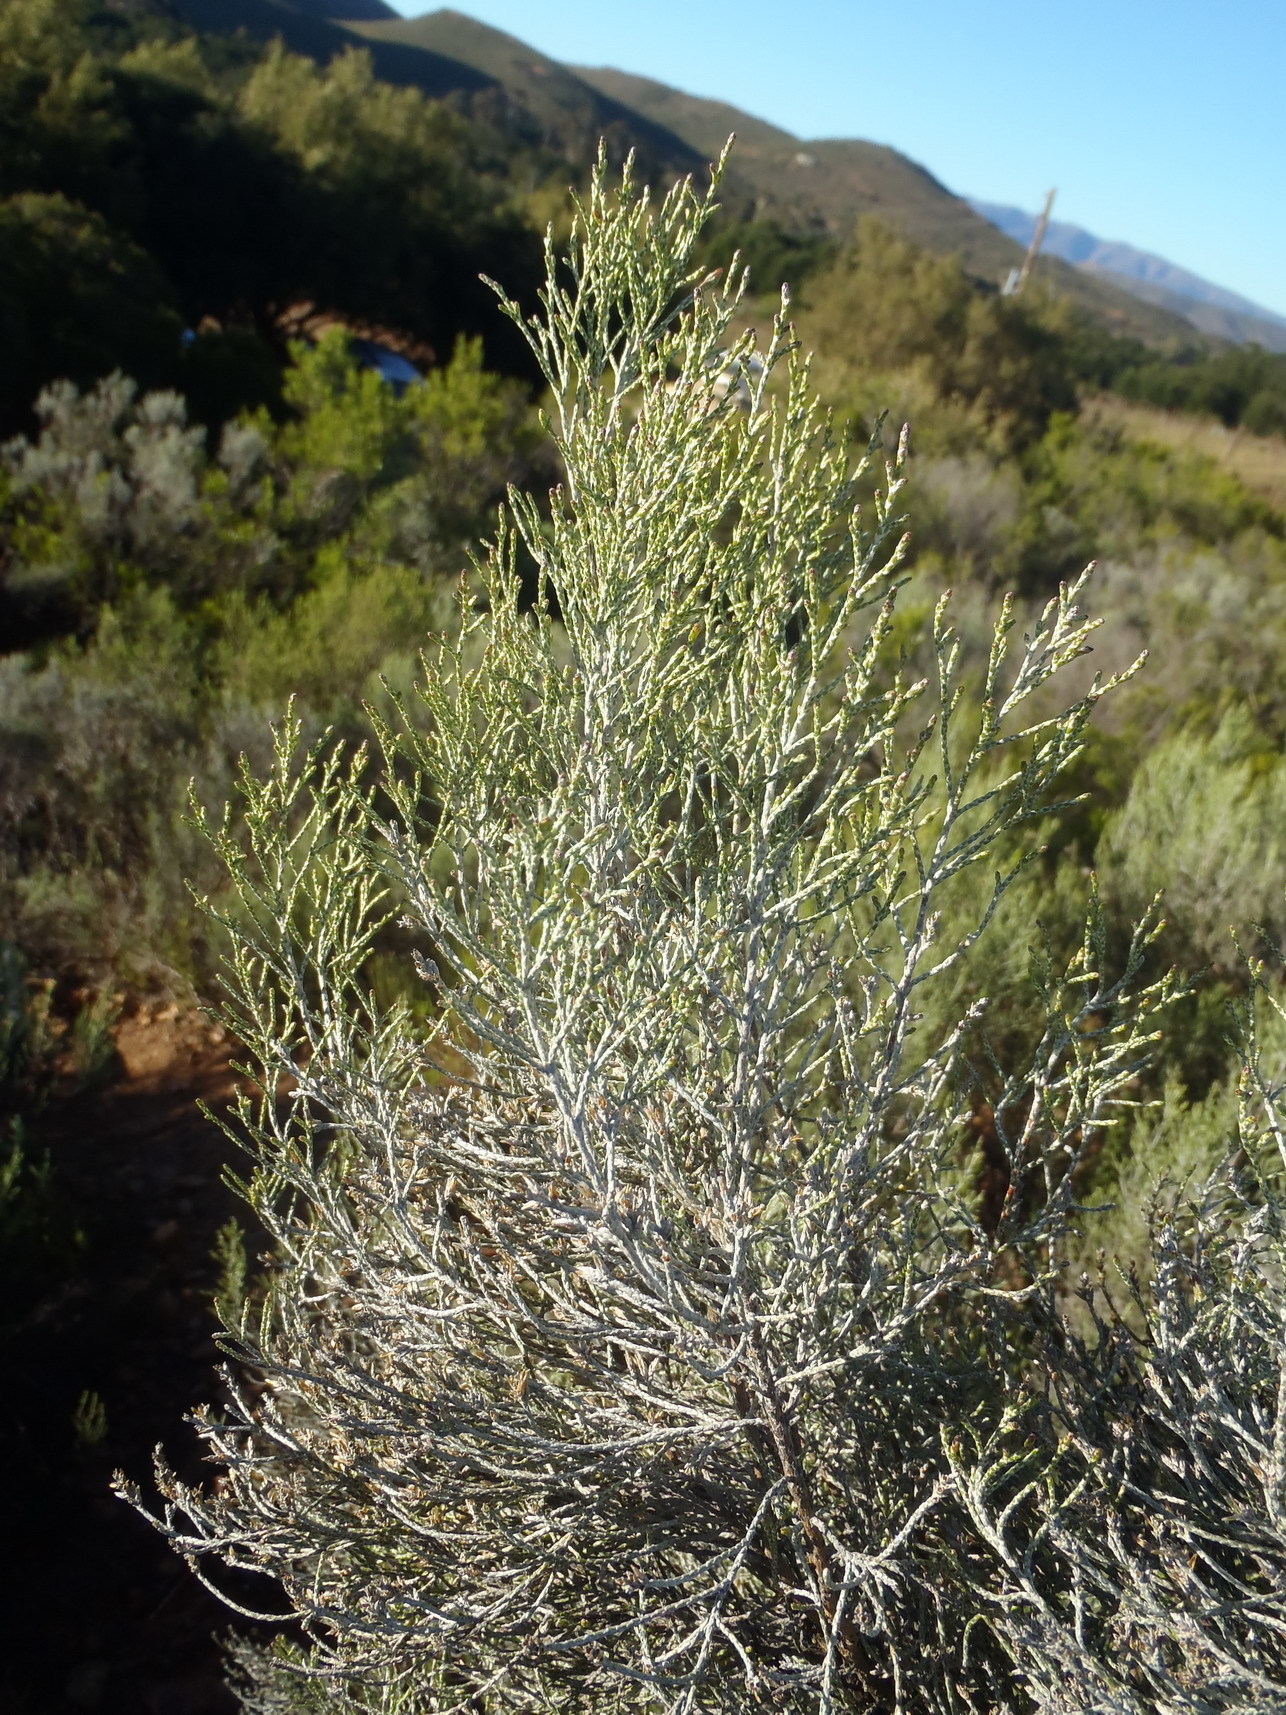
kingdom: Plantae
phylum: Tracheophyta
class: Magnoliopsida
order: Asterales
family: Asteraceae
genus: Dicerothamnus
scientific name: Dicerothamnus rhinocerotis
